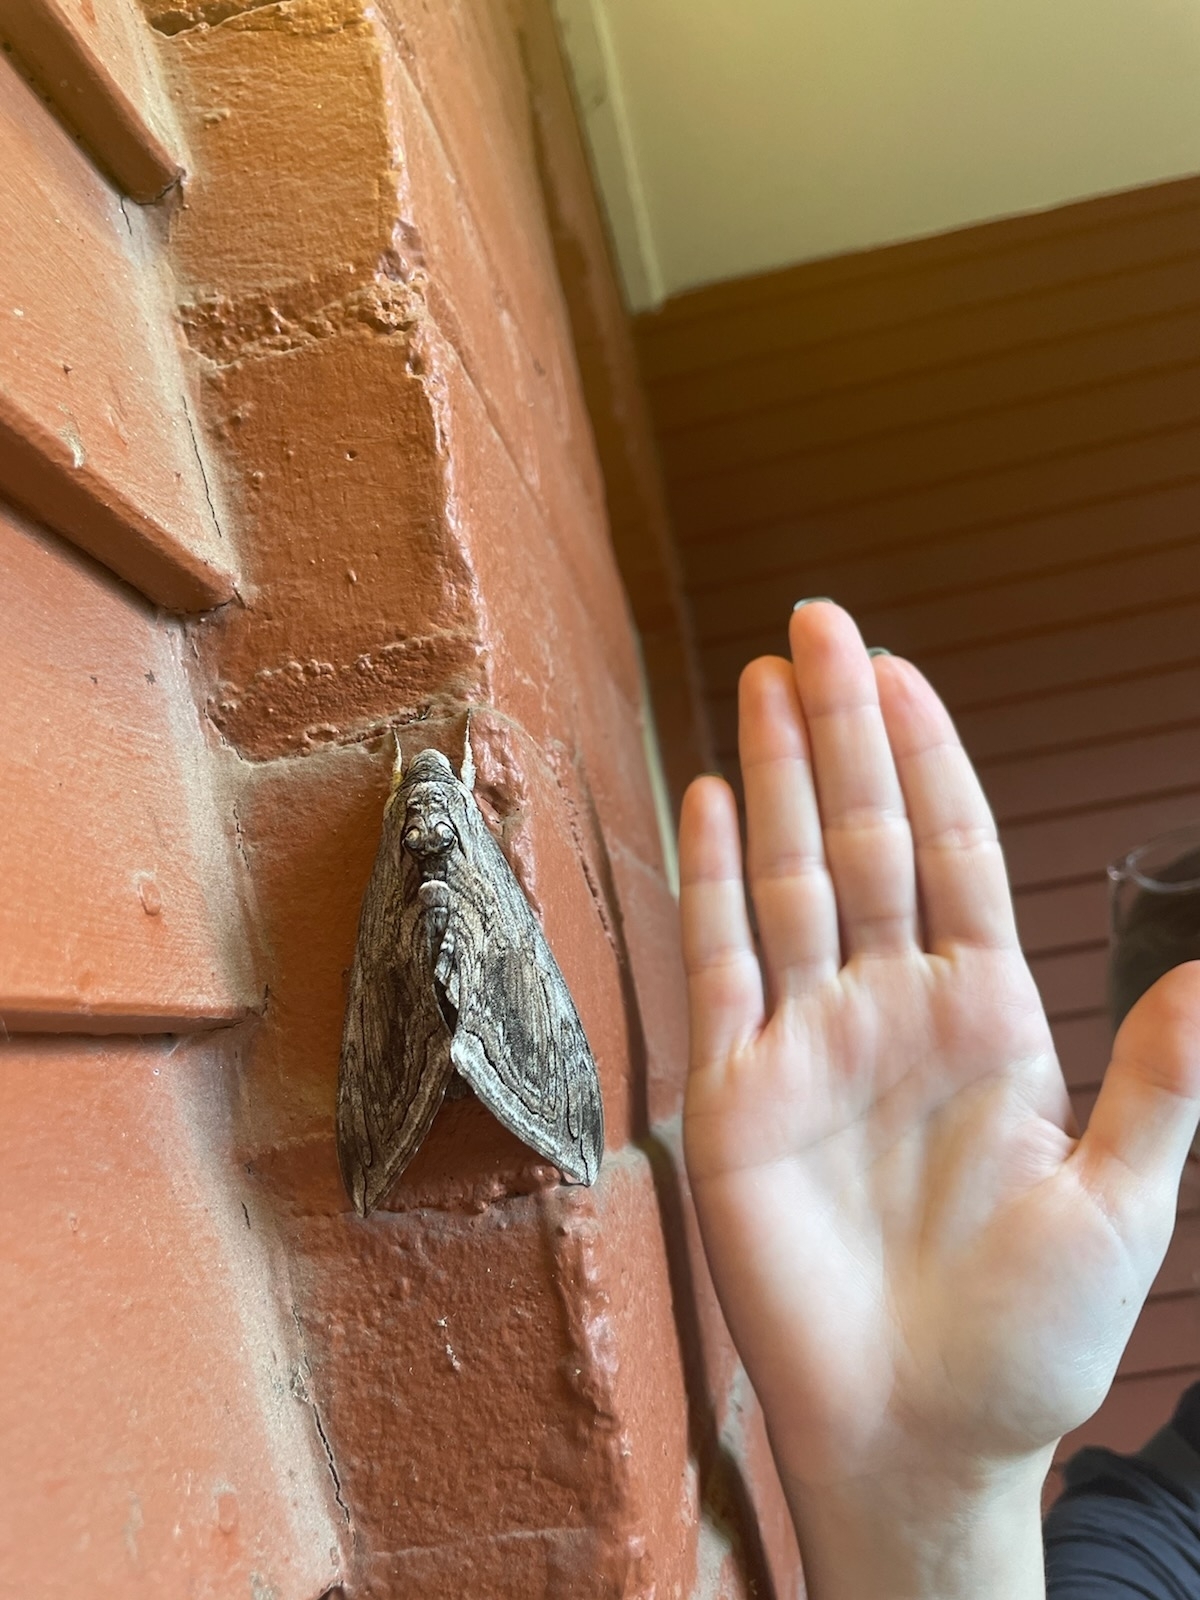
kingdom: Animalia
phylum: Arthropoda
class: Insecta
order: Lepidoptera
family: Sphingidae
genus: Manduca
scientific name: Manduca quinquemaculatus
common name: Five-spotted hawk-moth
